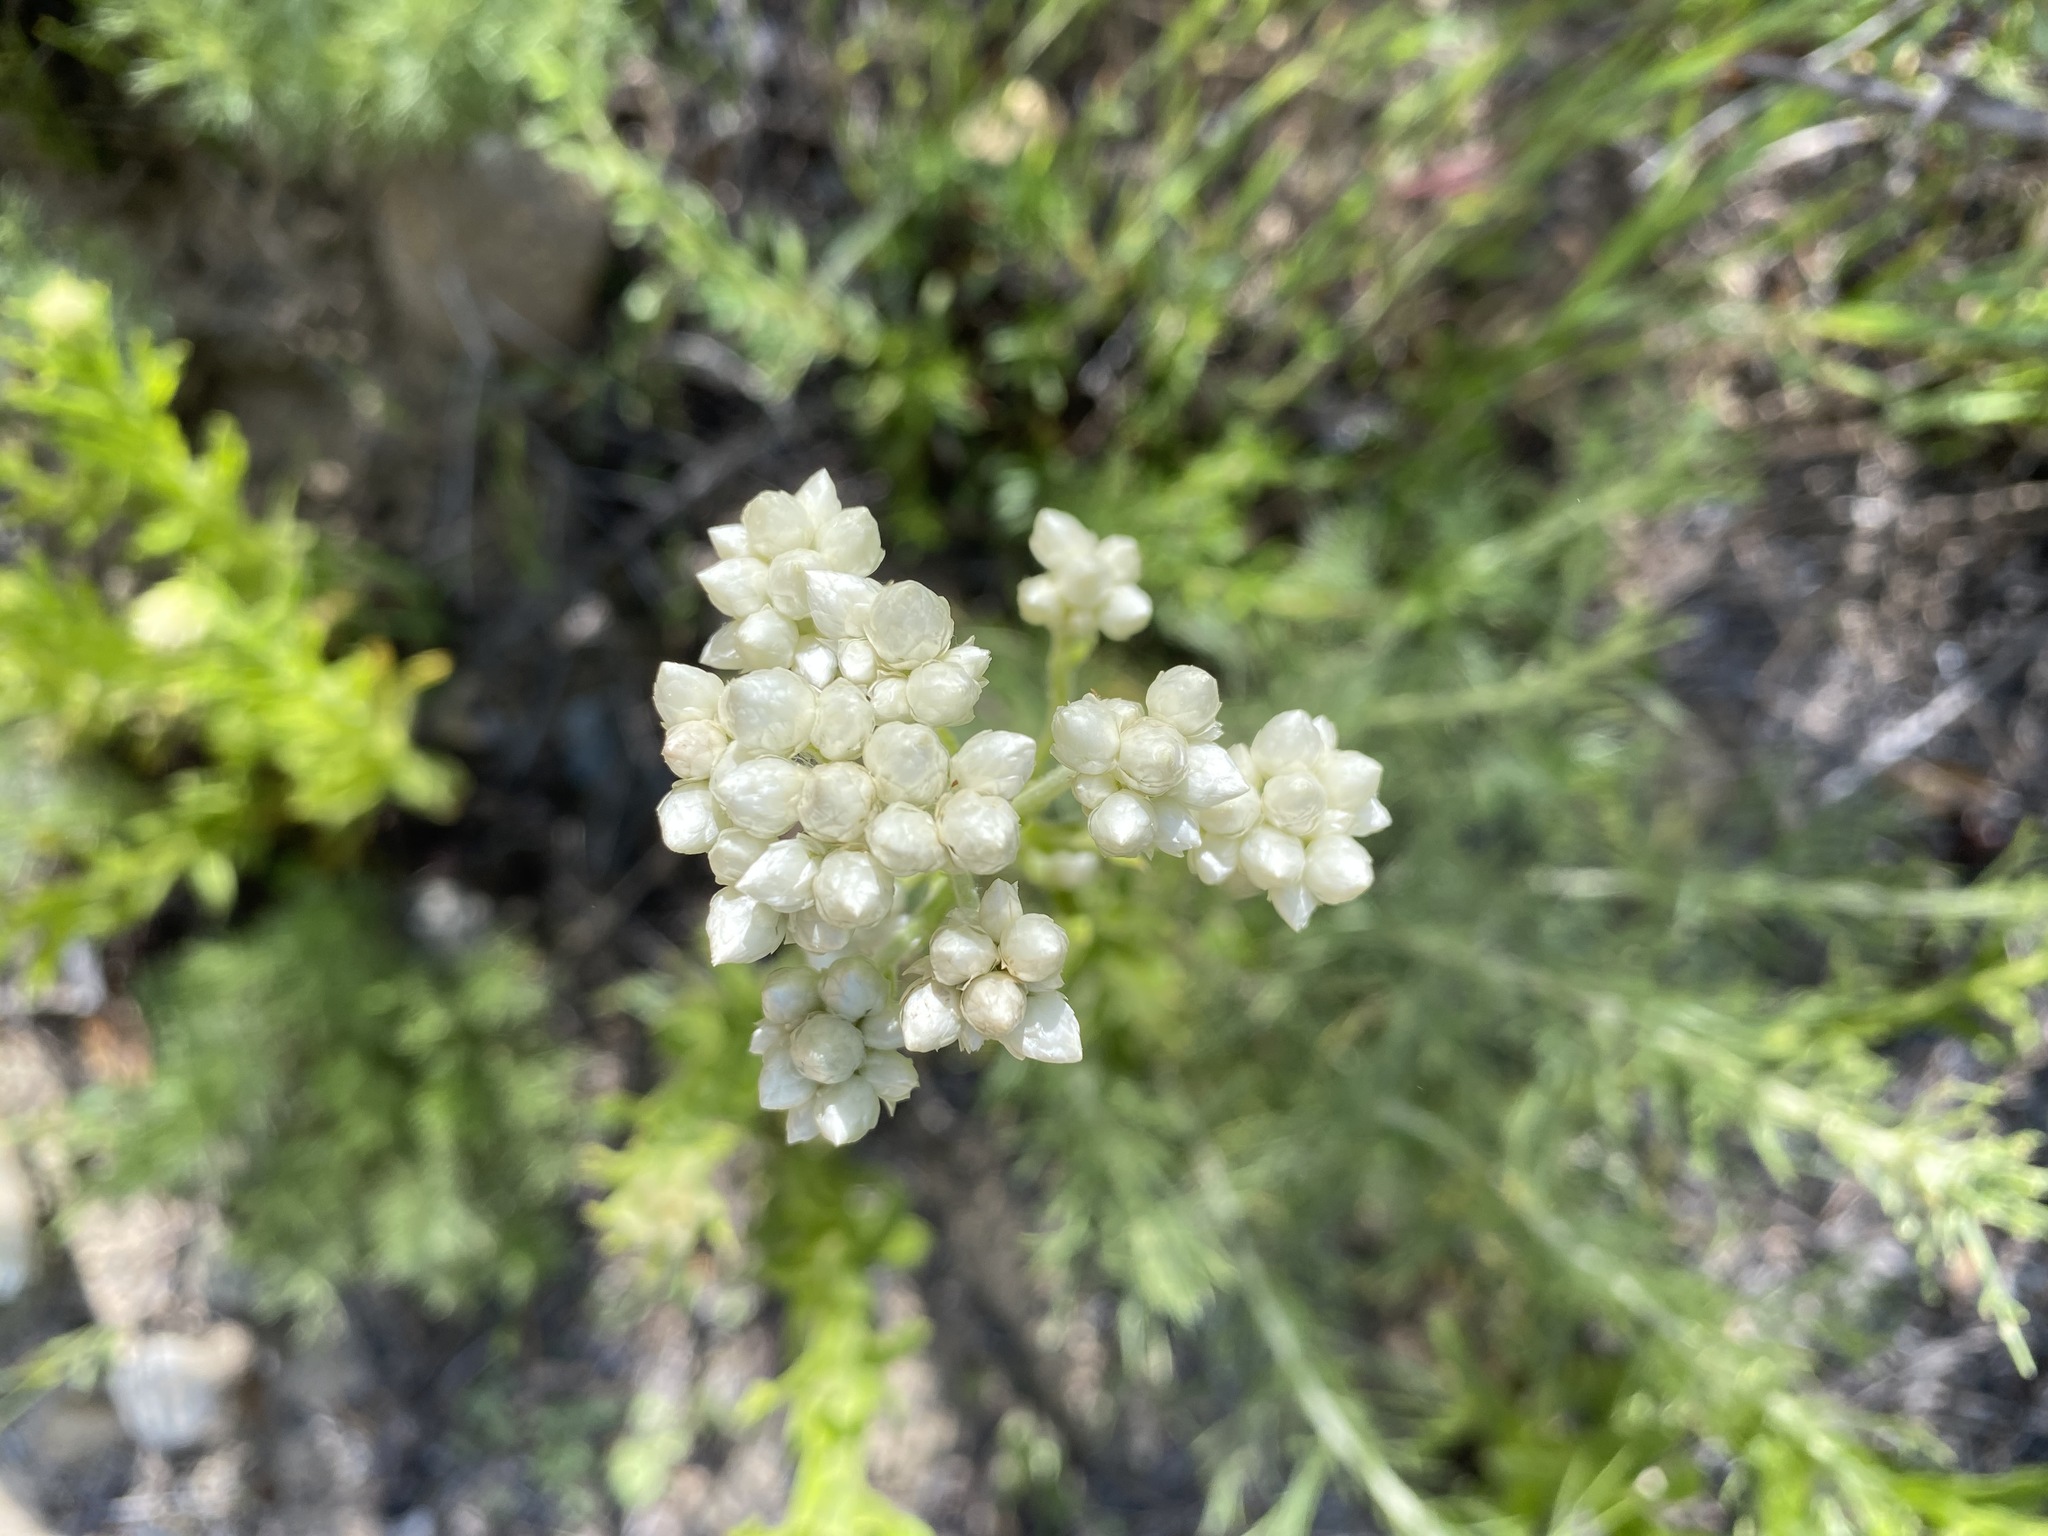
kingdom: Plantae
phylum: Tracheophyta
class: Magnoliopsida
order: Asterales
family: Asteraceae
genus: Pseudognaphalium
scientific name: Pseudognaphalium californicum
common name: California rabbit-tobacco
